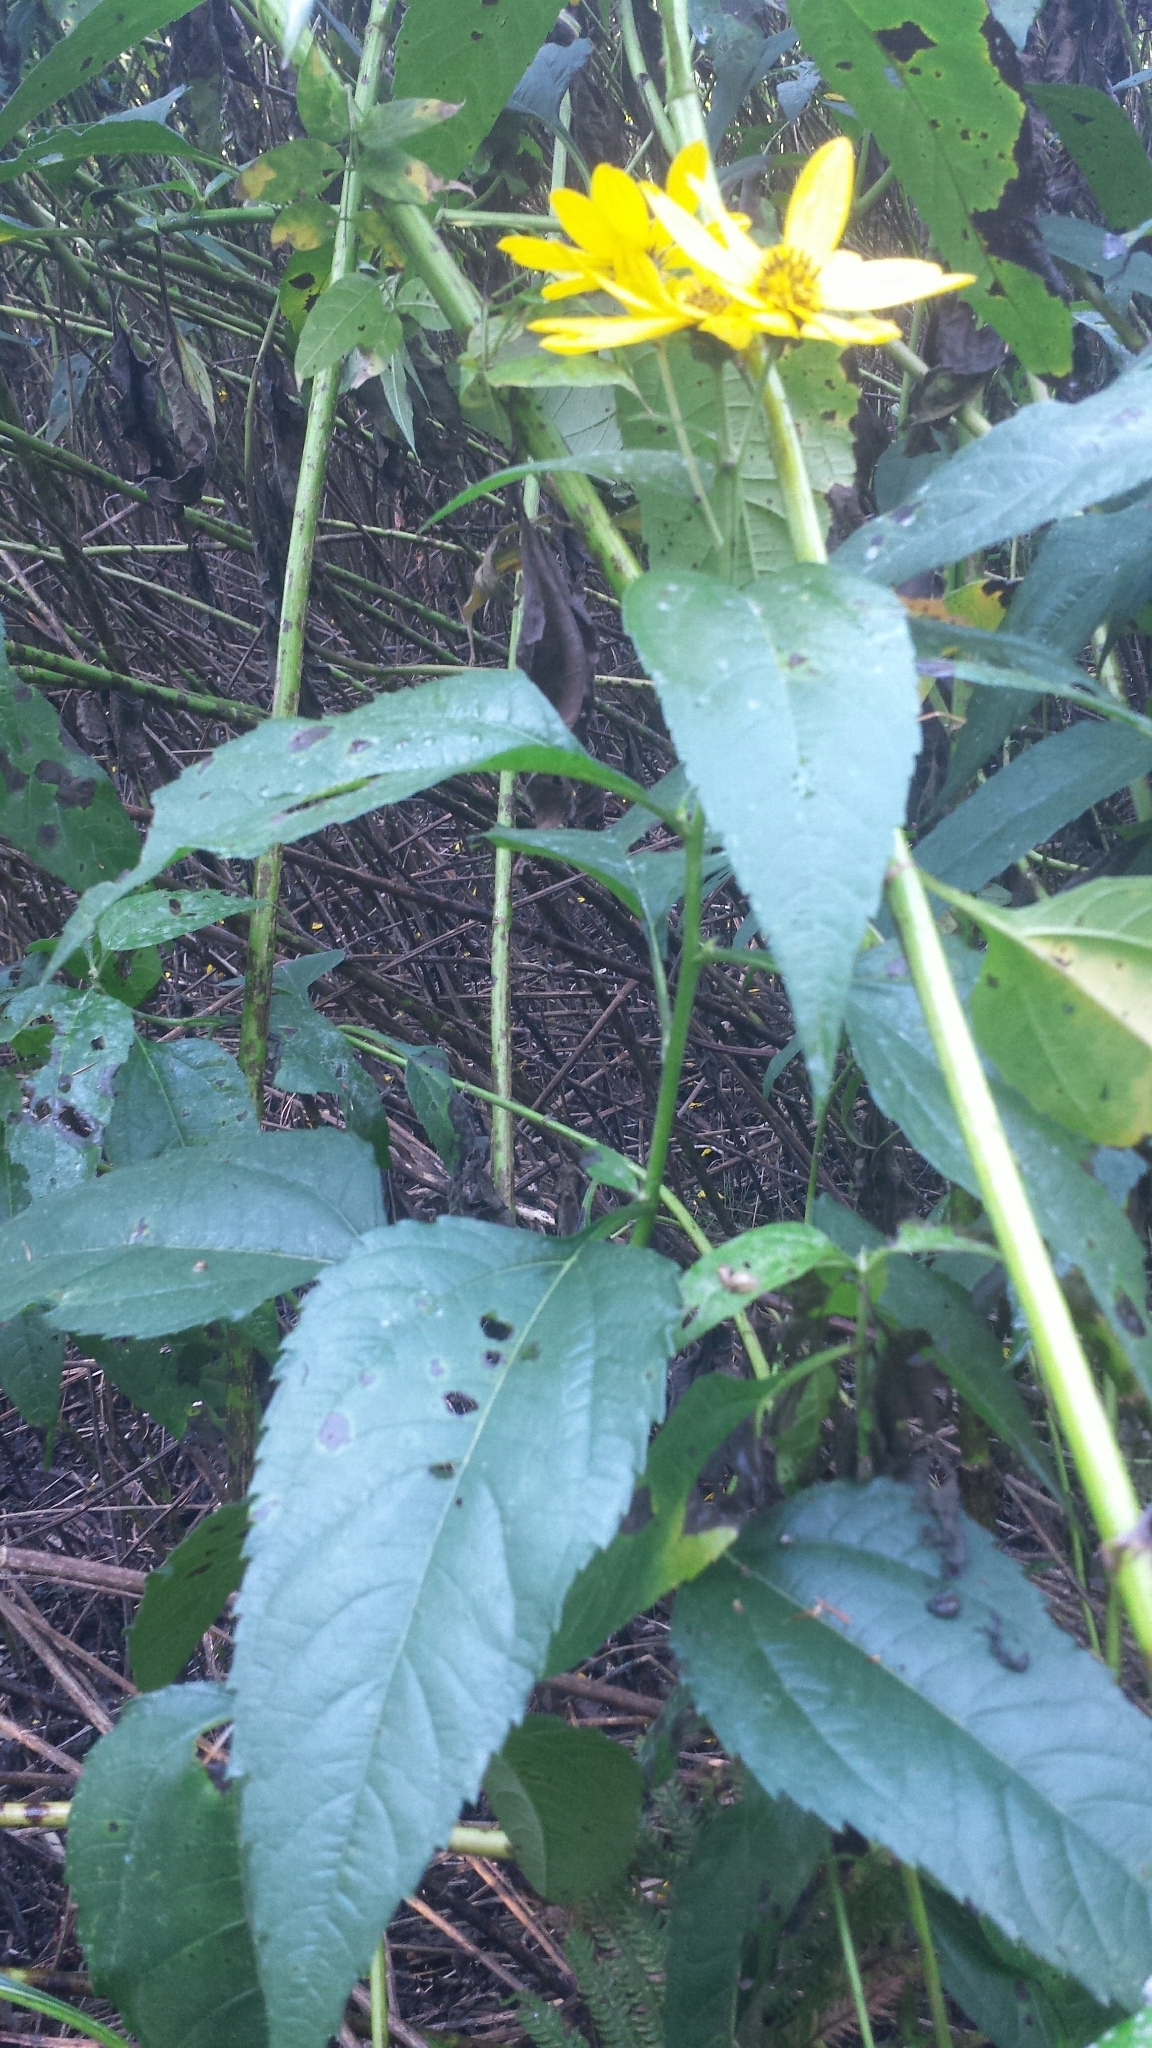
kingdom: Plantae
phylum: Tracheophyta
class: Magnoliopsida
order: Asterales
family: Asteraceae
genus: Helianthus
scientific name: Helianthus decapetalus
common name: Thin-leaved sunflower
